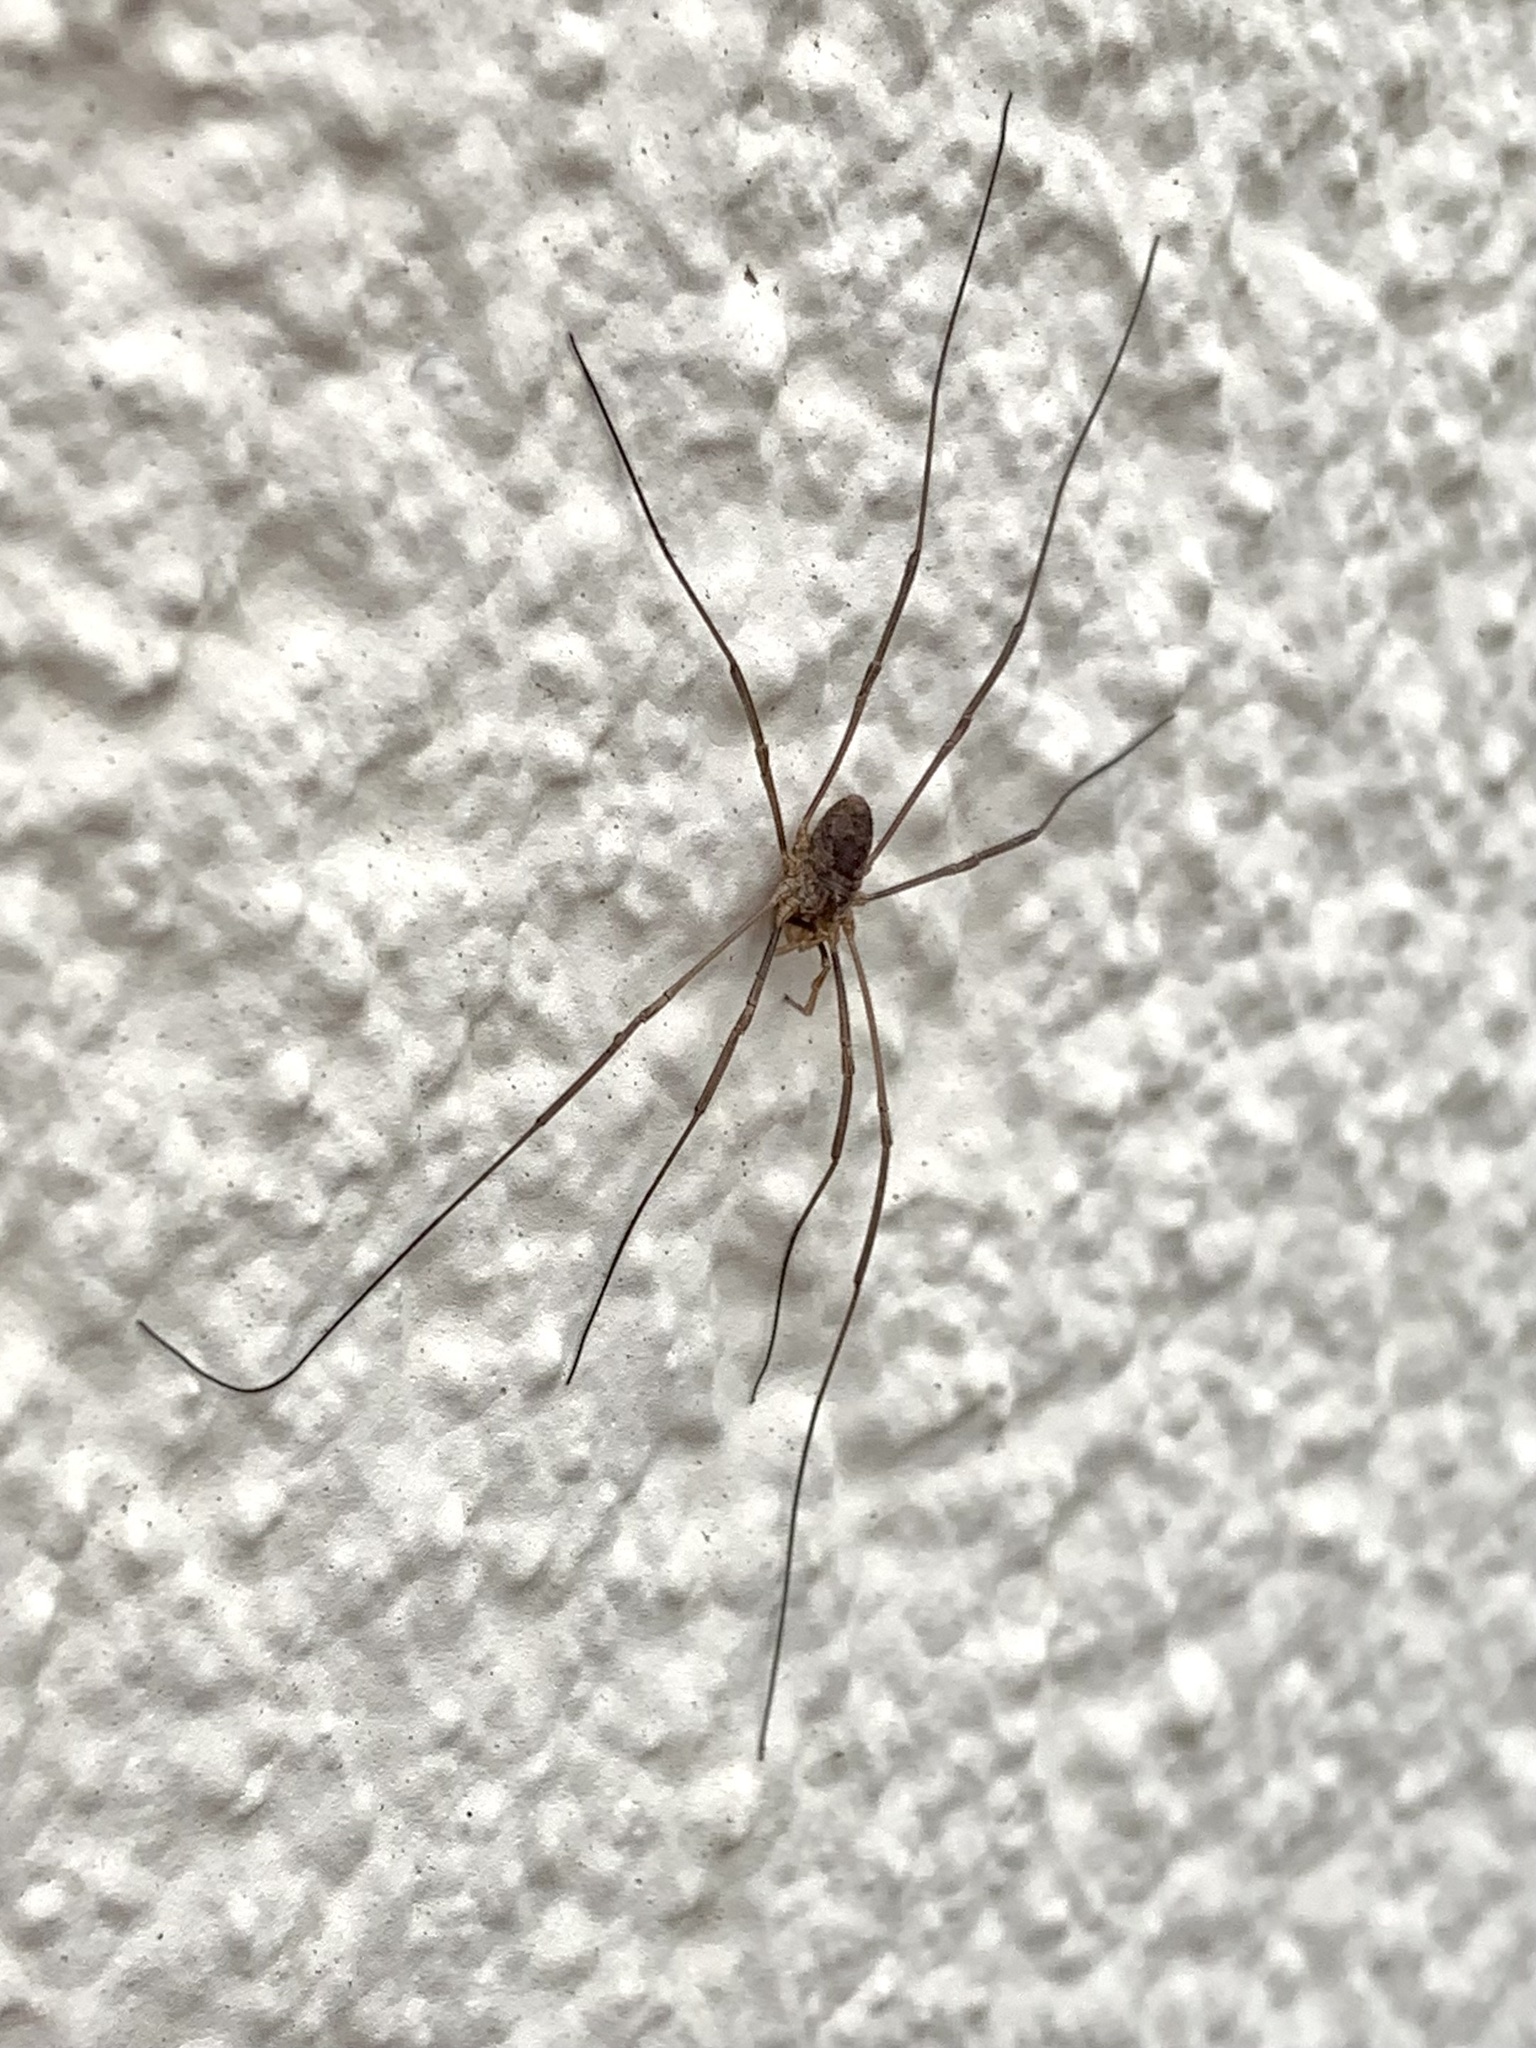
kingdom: Animalia
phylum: Arthropoda
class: Arachnida
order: Opiliones
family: Phalangiidae
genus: Phalangium
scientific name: Phalangium opilio
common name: Daddy longleg
